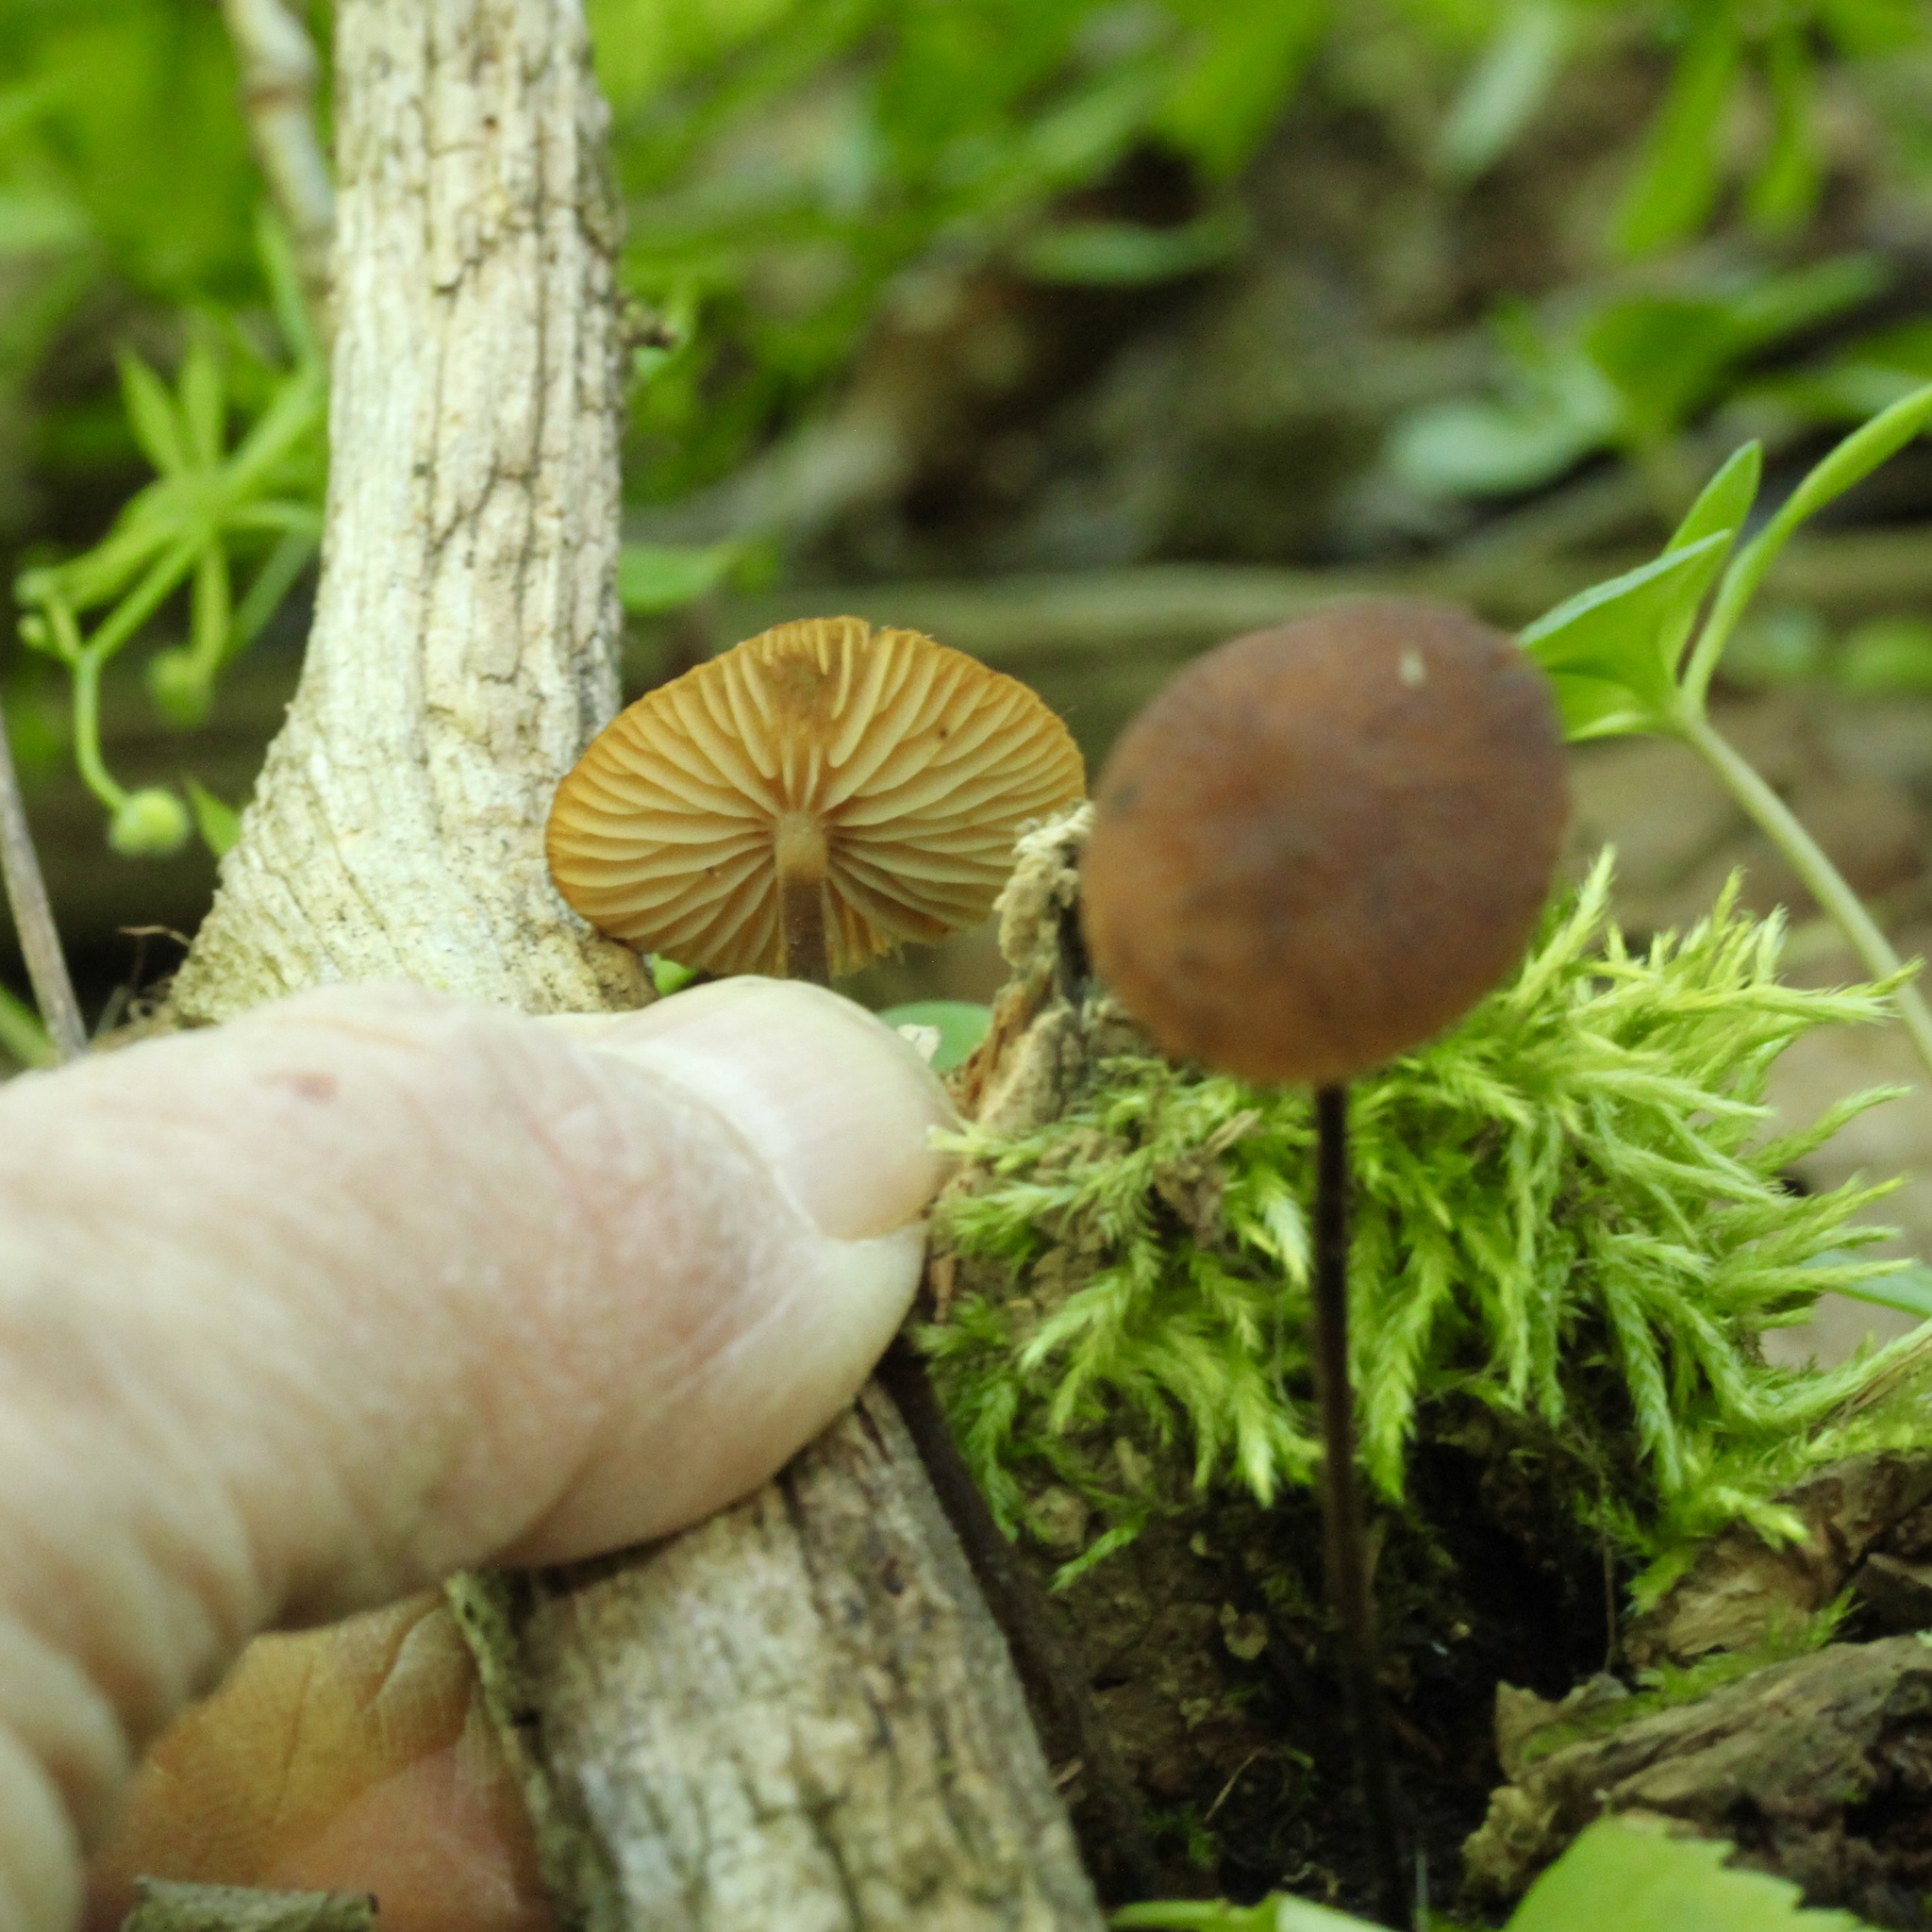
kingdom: Fungi
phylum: Basidiomycota
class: Agaricomycetes
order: Agaricales
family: Physalacriaceae
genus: Rhizomarasmius
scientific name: Rhizomarasmius pyrrhocephalus
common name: Hairy long stem marasmius
